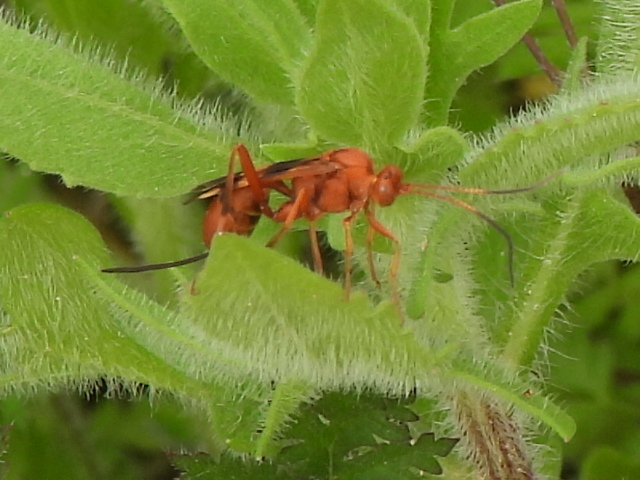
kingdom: Animalia
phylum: Arthropoda
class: Insecta
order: Hymenoptera
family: Ichneumonidae
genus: Compsocryptus
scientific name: Compsocryptus texensis
